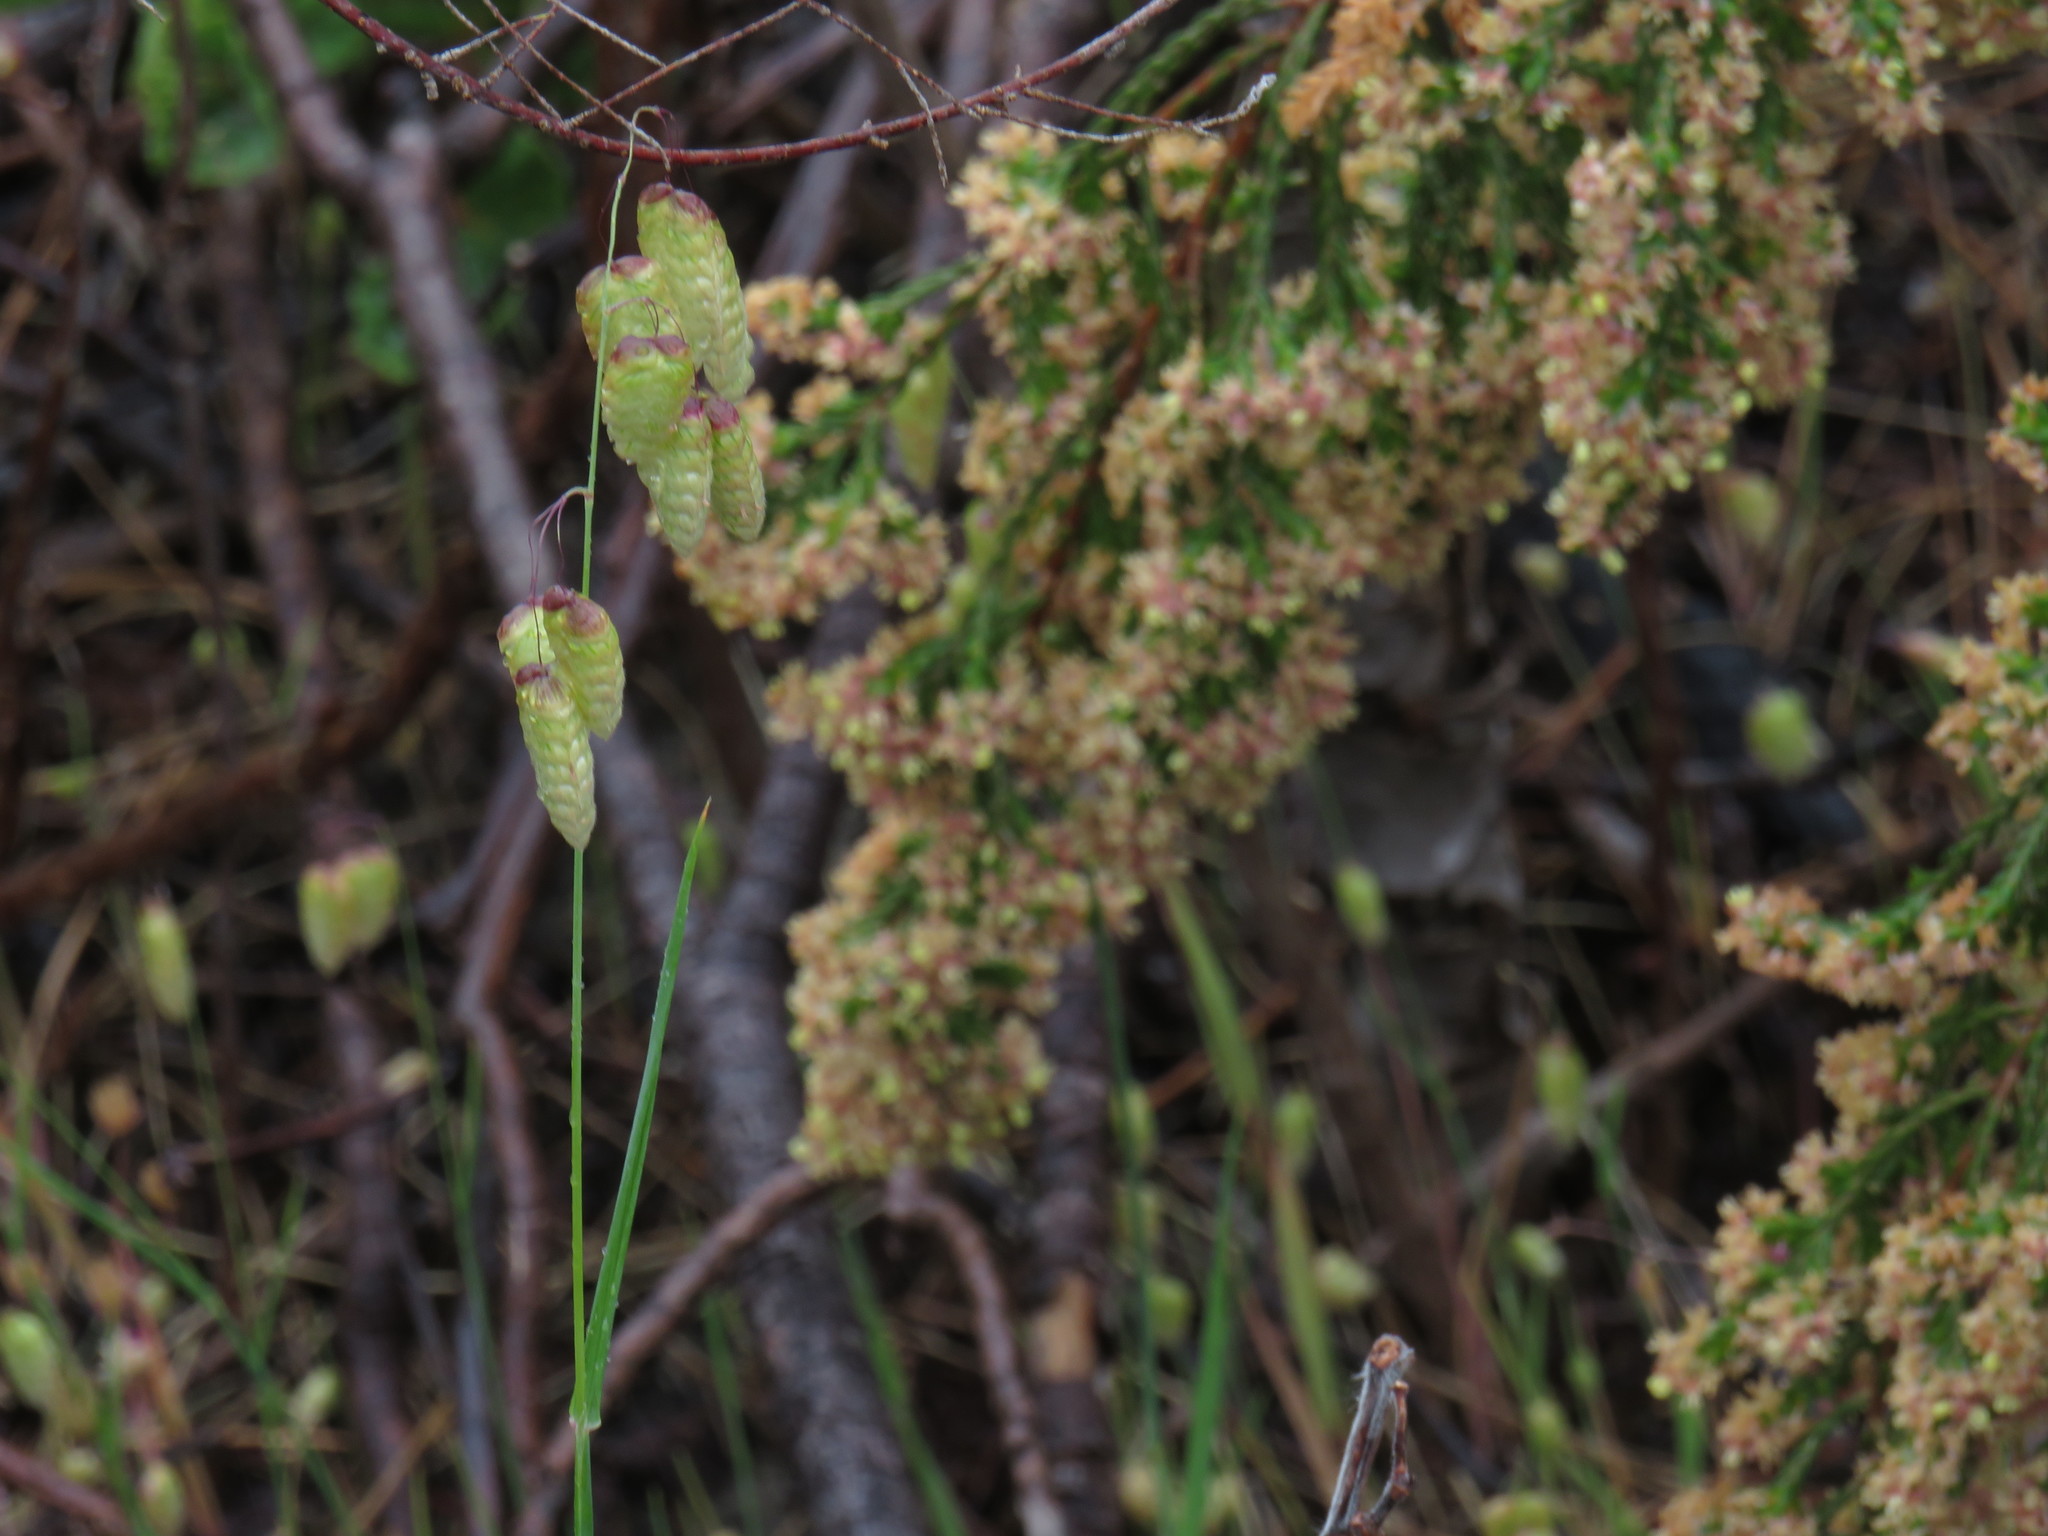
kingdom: Plantae
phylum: Tracheophyta
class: Liliopsida
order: Poales
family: Poaceae
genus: Briza
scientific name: Briza maxima
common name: Big quakinggrass
